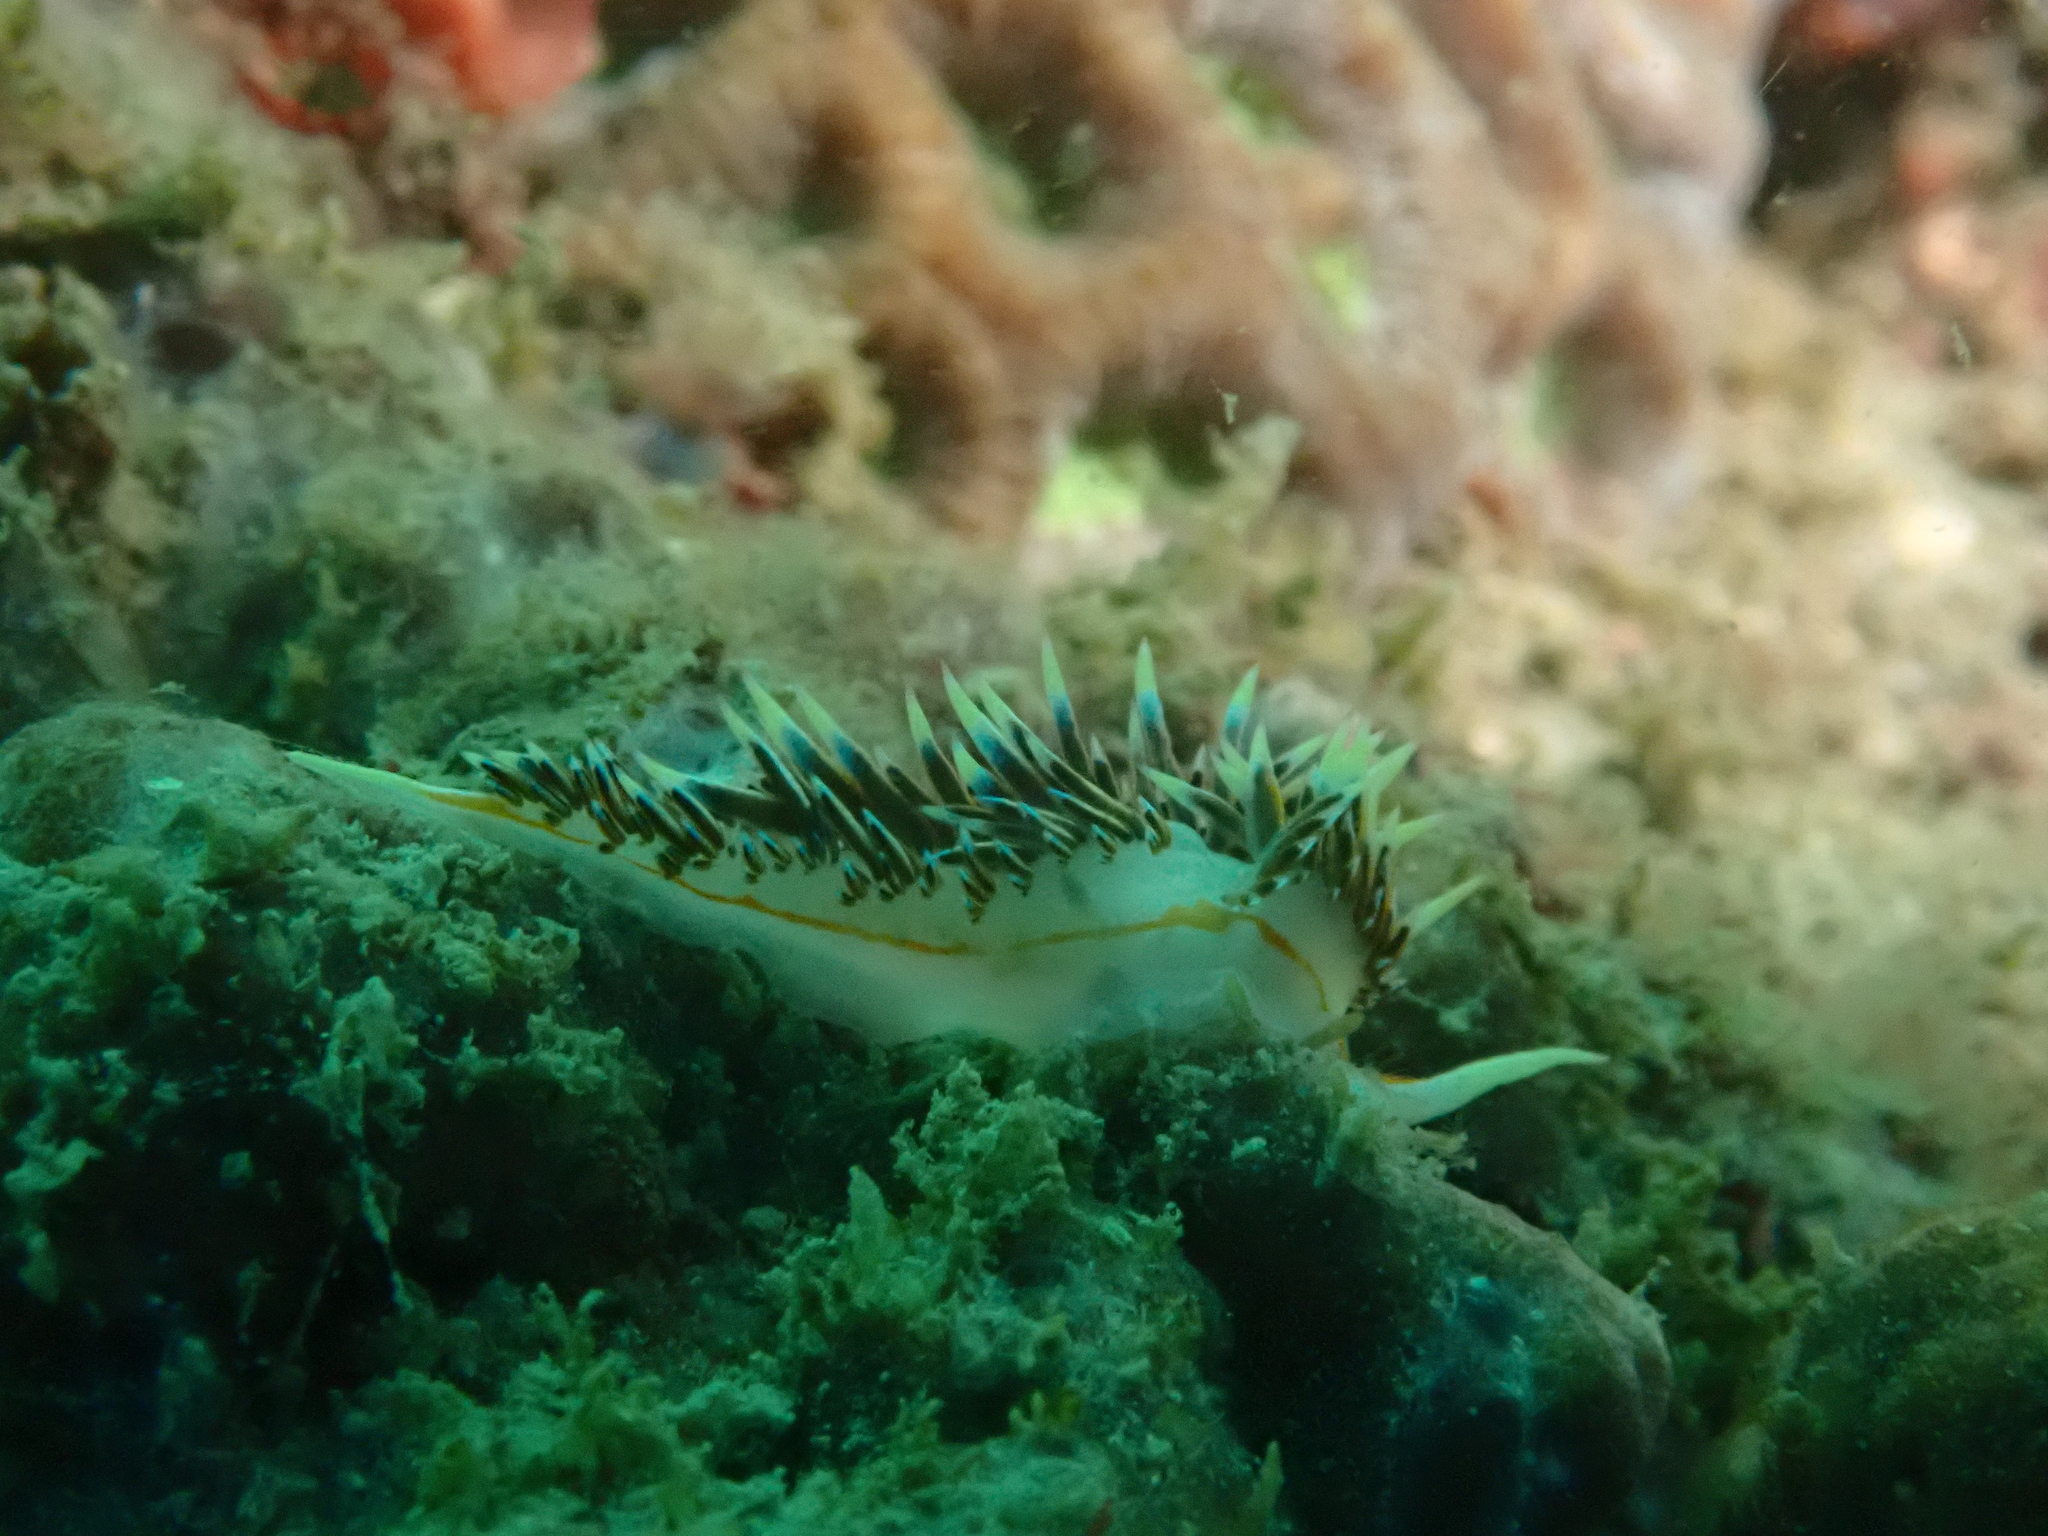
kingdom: Animalia
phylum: Mollusca
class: Gastropoda
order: Nudibranchia
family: Facelinidae
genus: Phidiana
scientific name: Phidiana militaris
